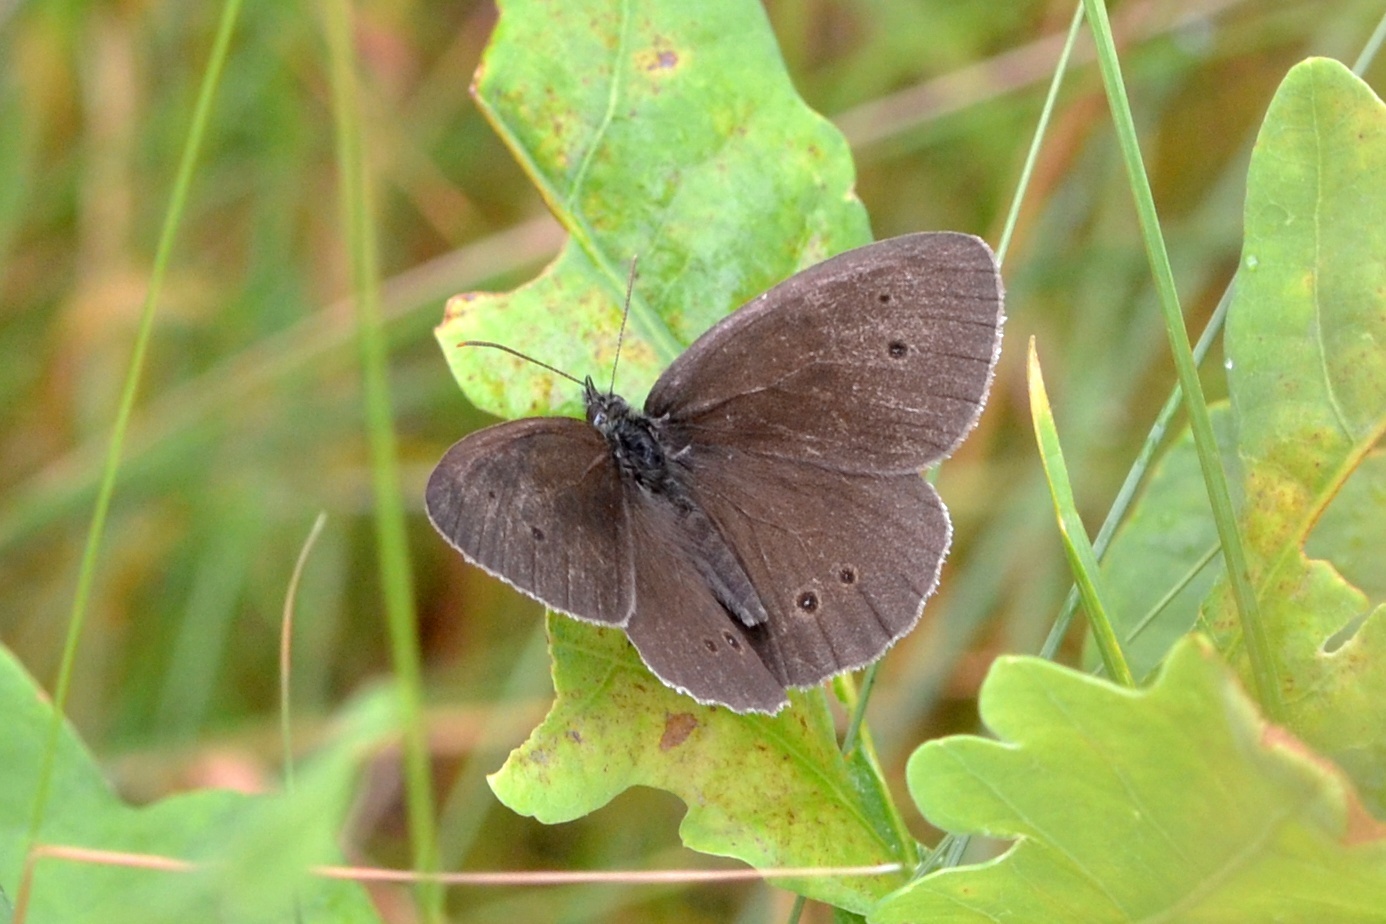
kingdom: Animalia
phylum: Arthropoda
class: Insecta
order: Lepidoptera
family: Nymphalidae
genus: Aphantopus
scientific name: Aphantopus hyperantus
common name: Ringlet
